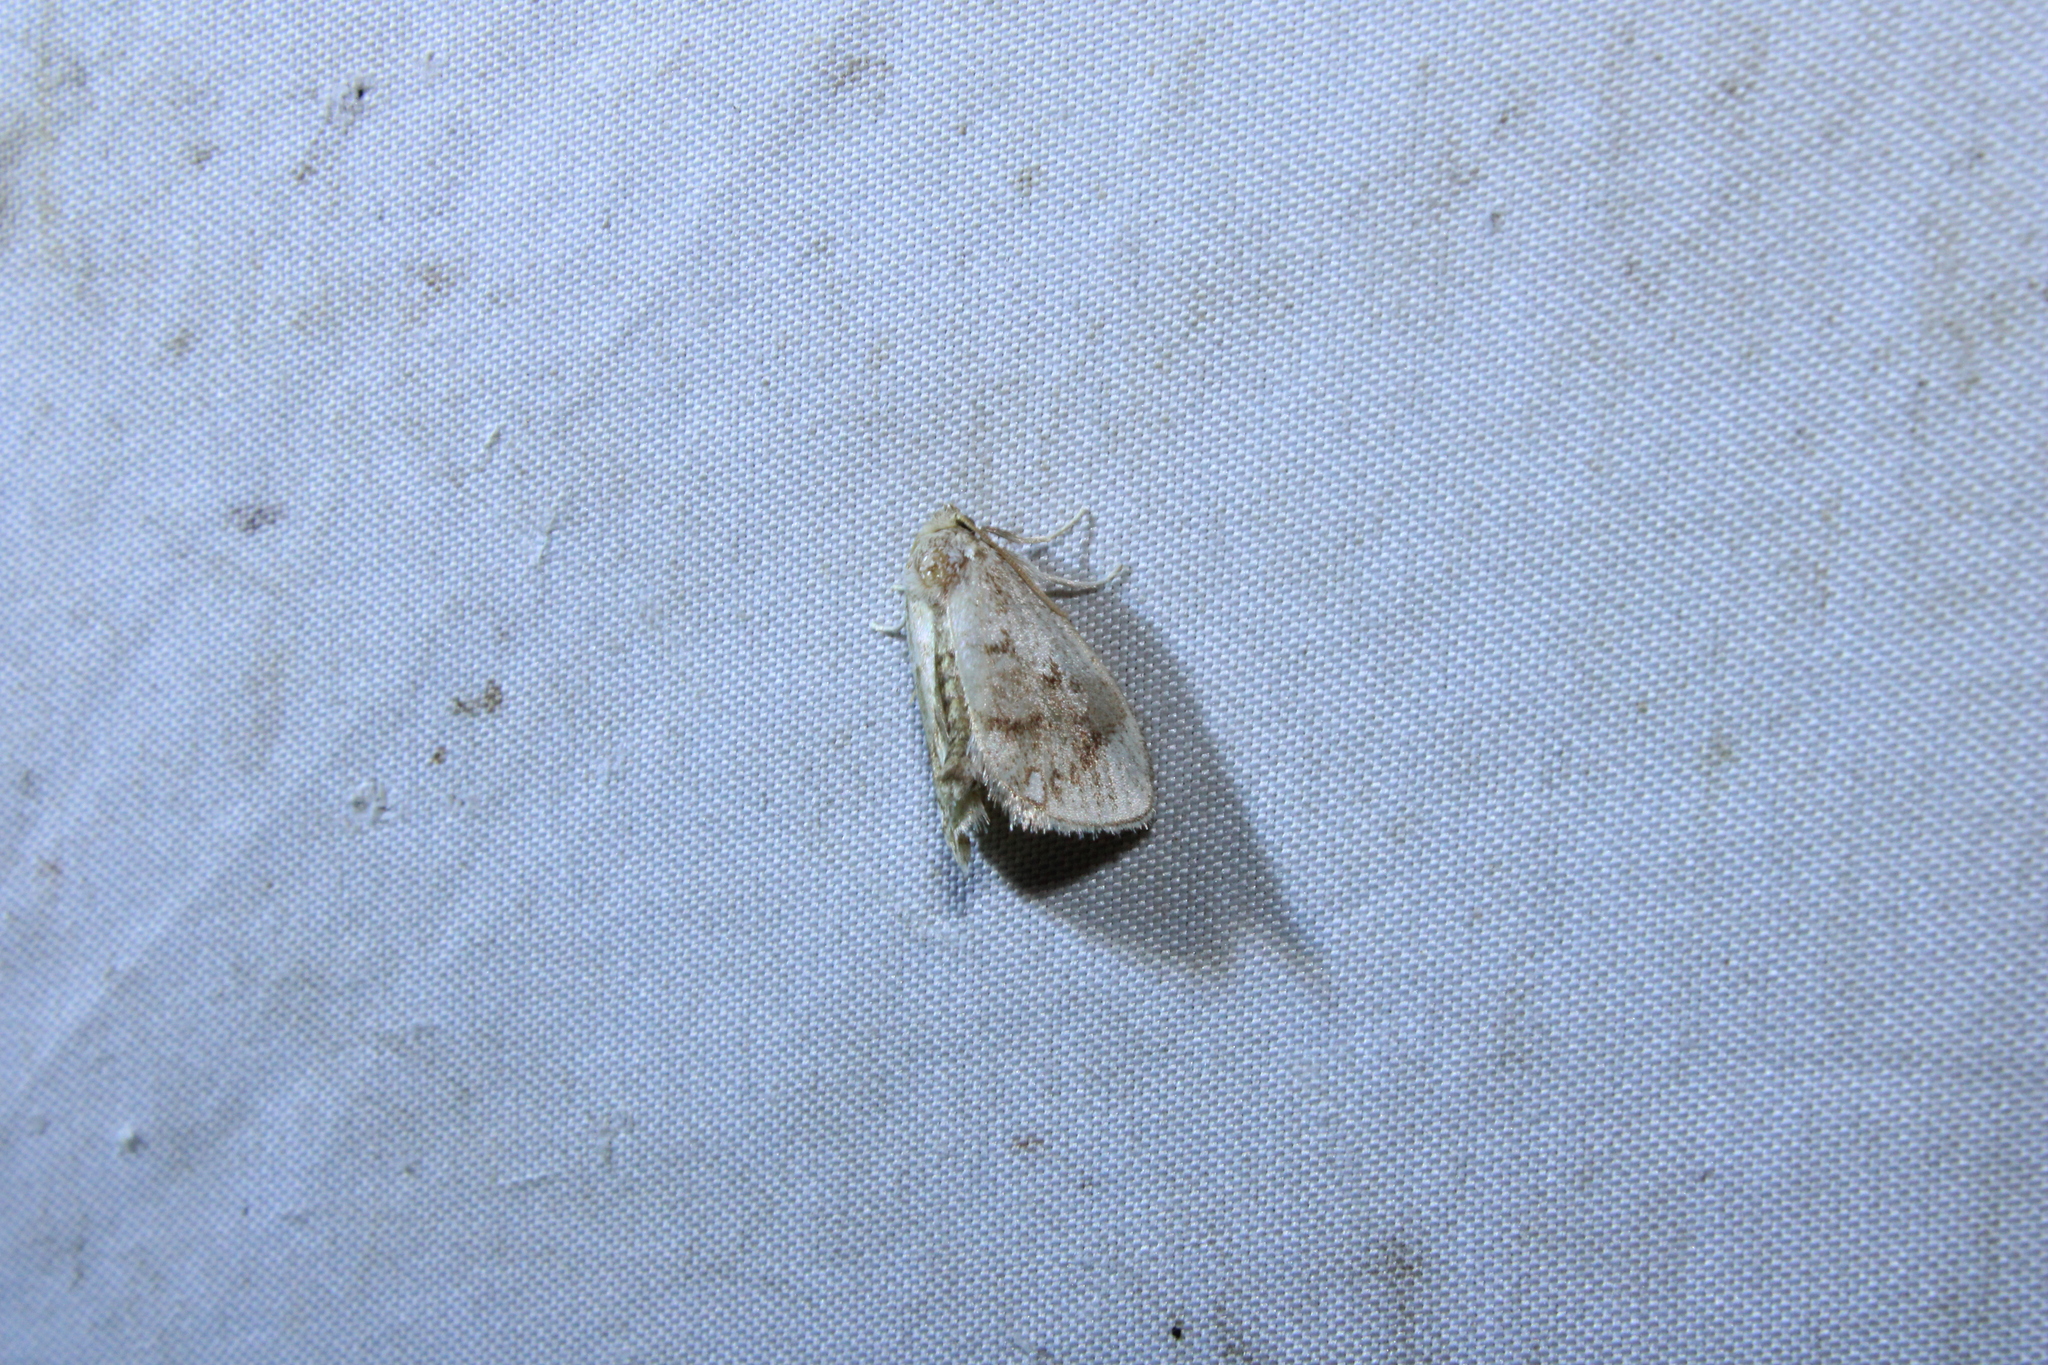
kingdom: Animalia
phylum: Arthropoda
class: Insecta
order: Lepidoptera
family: Limacodidae
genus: Packardia
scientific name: Packardia geminata
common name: Jeweled tailed slug moth
